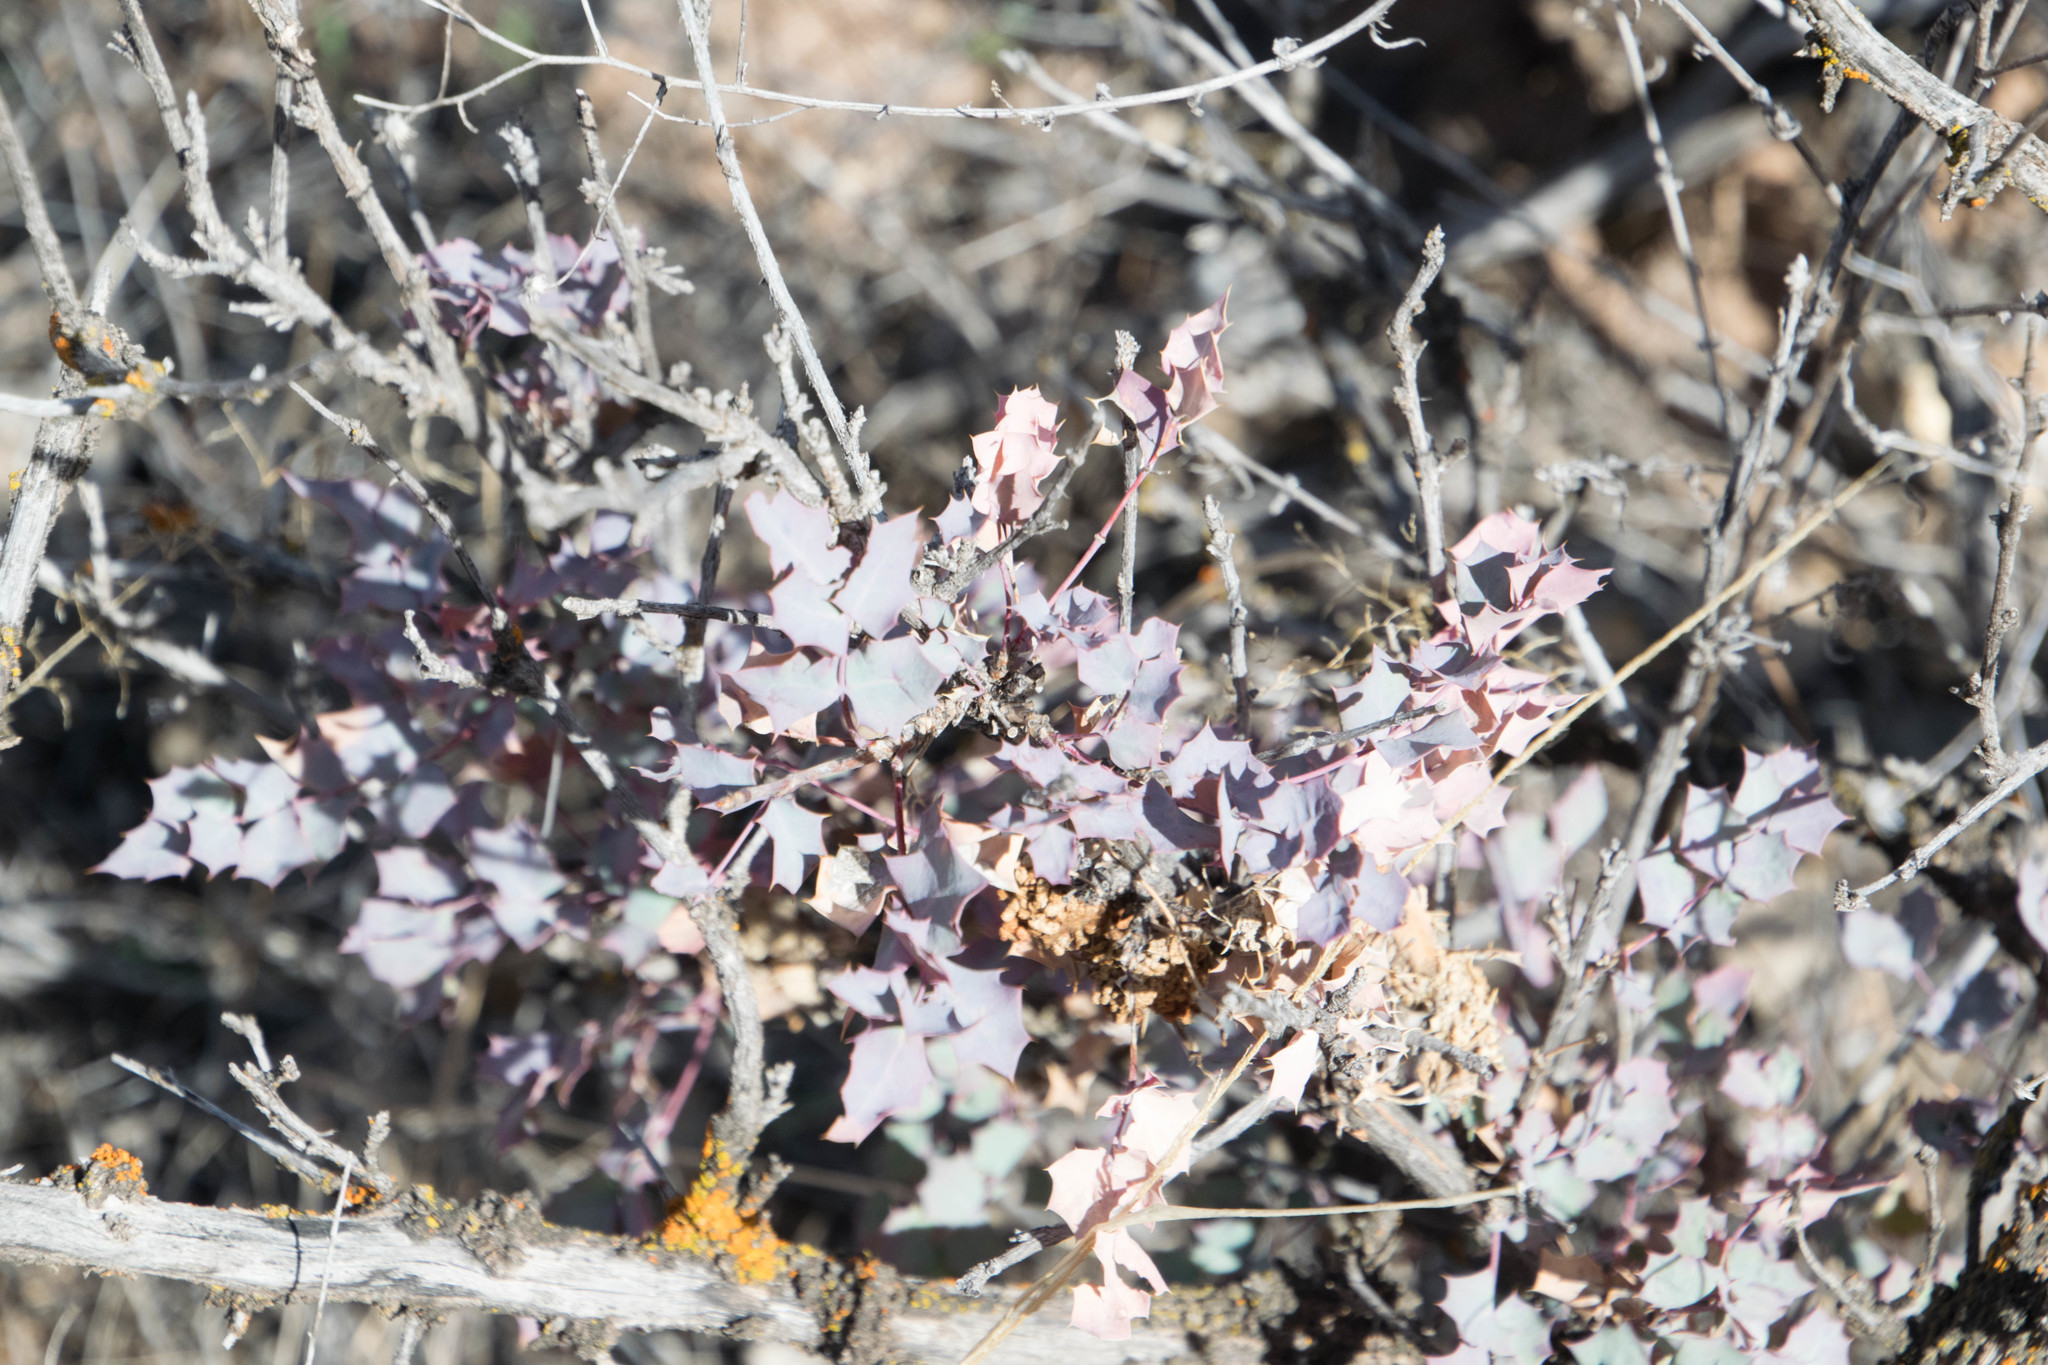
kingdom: Plantae
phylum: Tracheophyta
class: Magnoliopsida
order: Ranunculales
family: Berberidaceae
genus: Alloberberis
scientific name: Alloberberis fremontii
